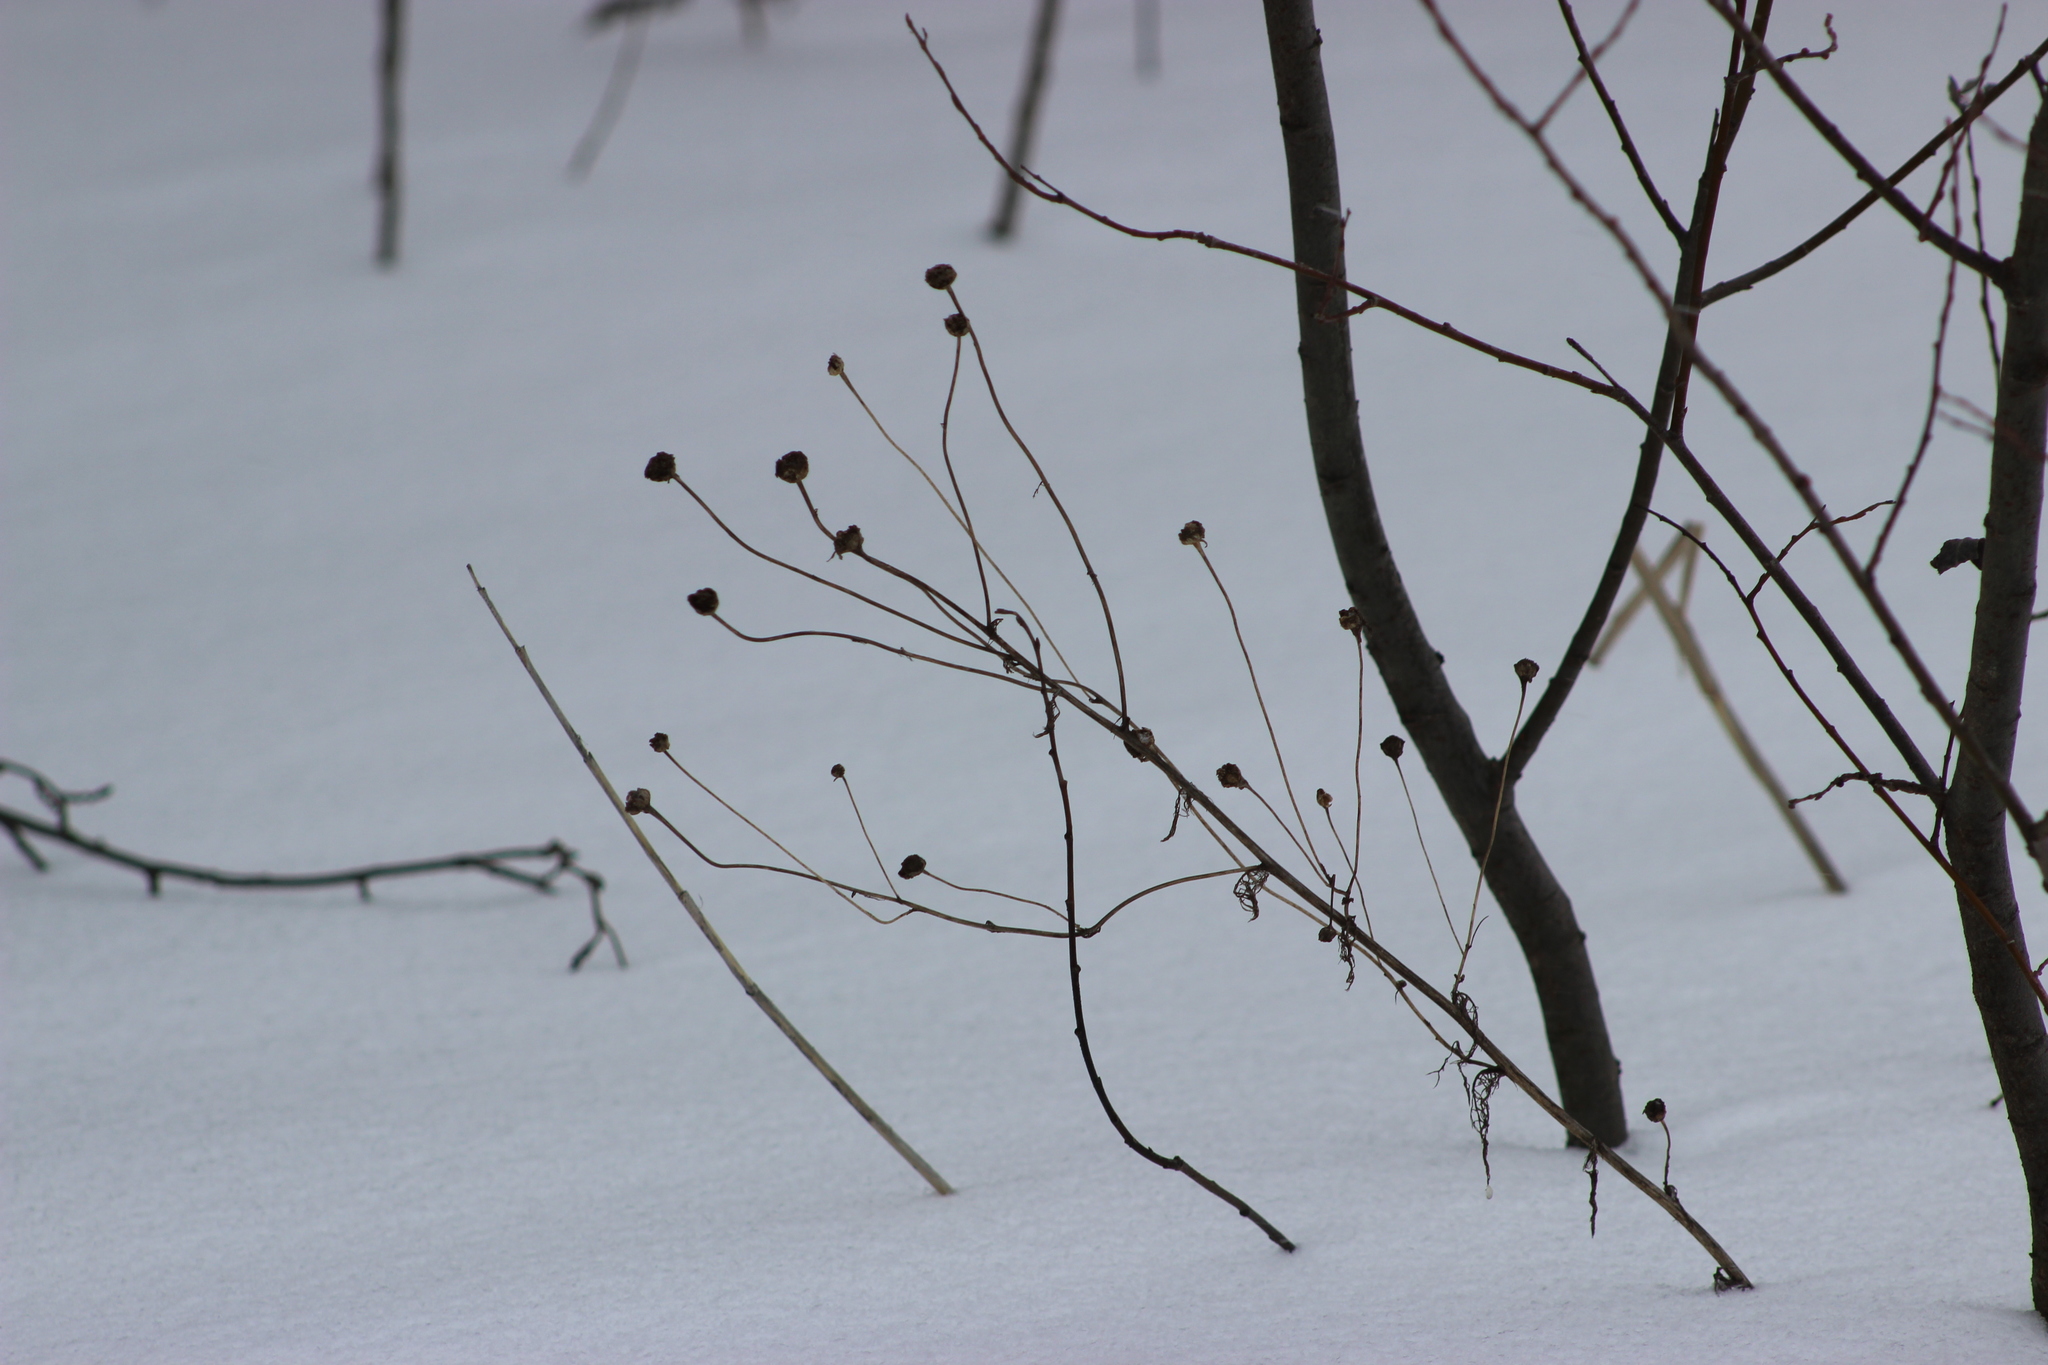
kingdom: Plantae
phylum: Tracheophyta
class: Magnoliopsida
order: Asterales
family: Asteraceae
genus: Tripleurospermum
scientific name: Tripleurospermum inodorum
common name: Scentless mayweed
